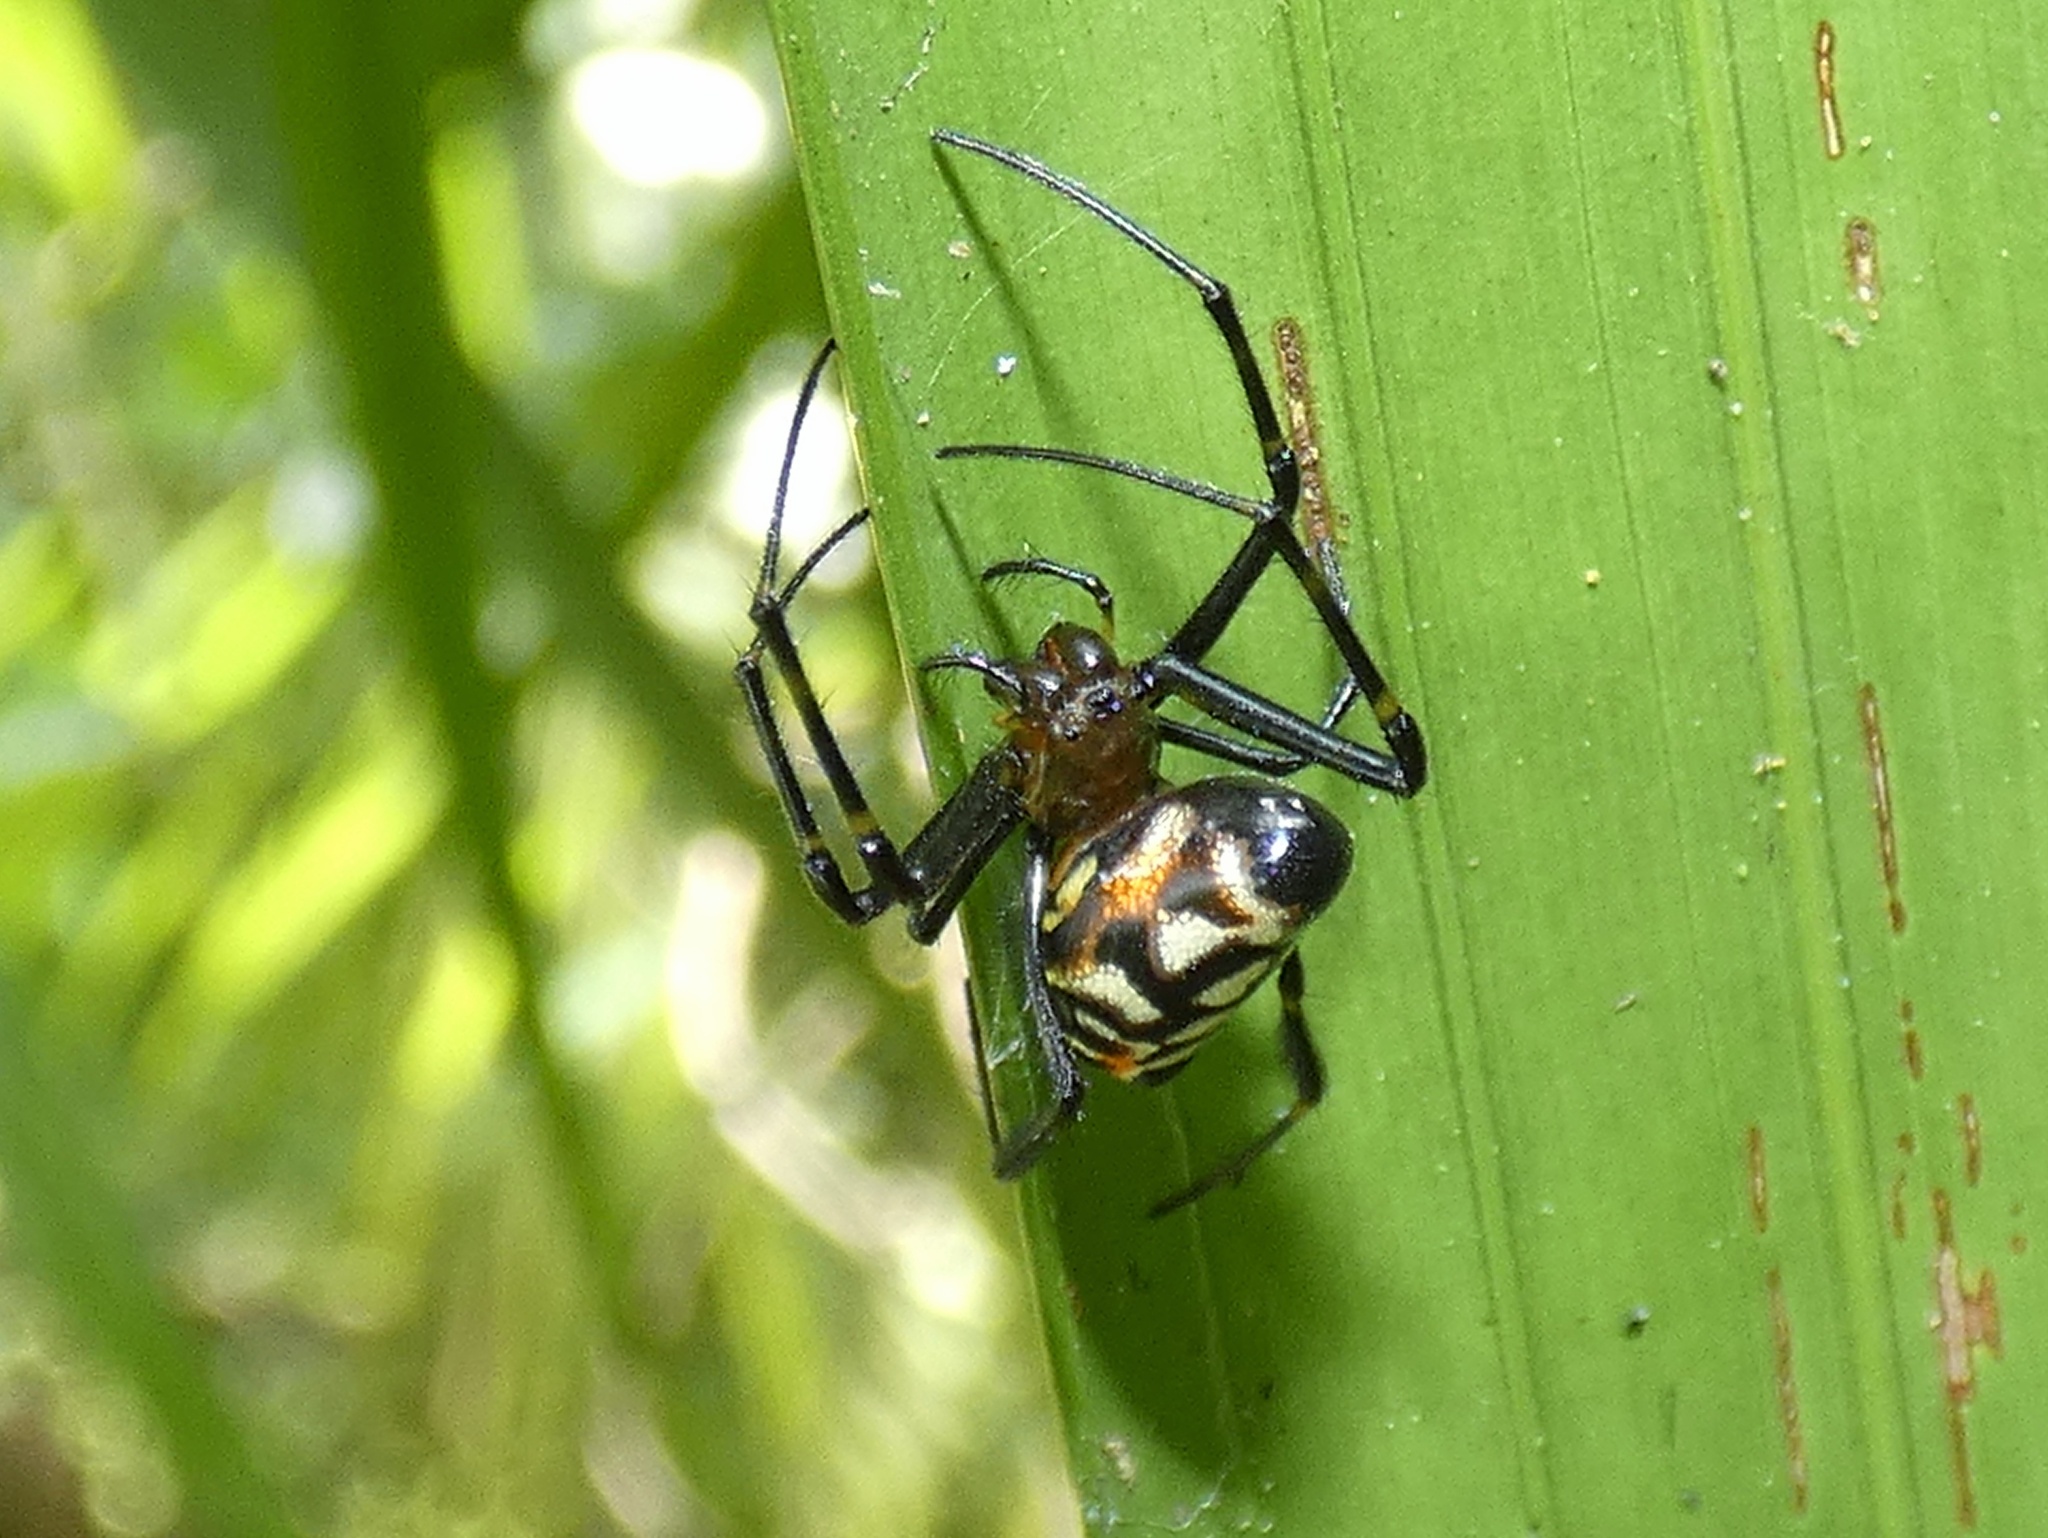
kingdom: Animalia
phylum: Arthropoda
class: Arachnida
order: Araneae
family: Tetragnathidae
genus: Leucauge
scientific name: Leucauge fastigata
